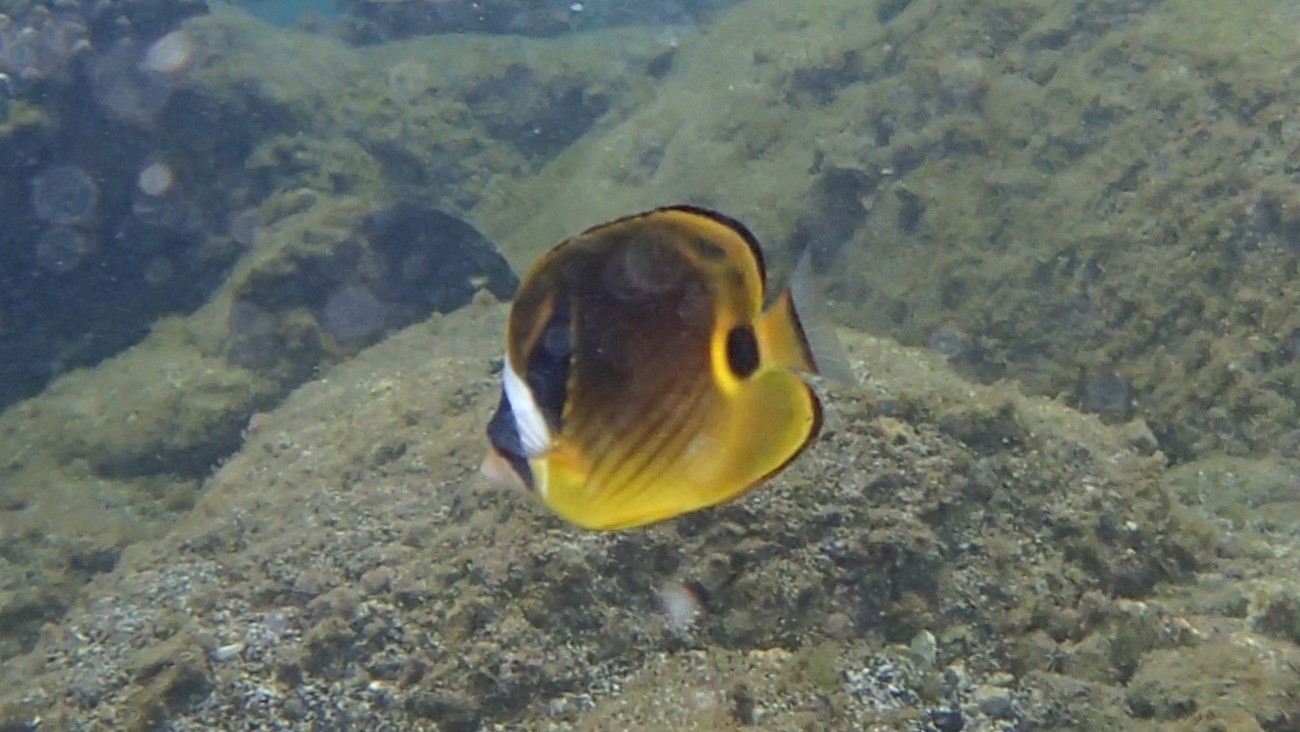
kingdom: Animalia
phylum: Chordata
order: Perciformes
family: Chaetodontidae
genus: Chaetodon
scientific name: Chaetodon lunula
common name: Raccoon butterflyfish
